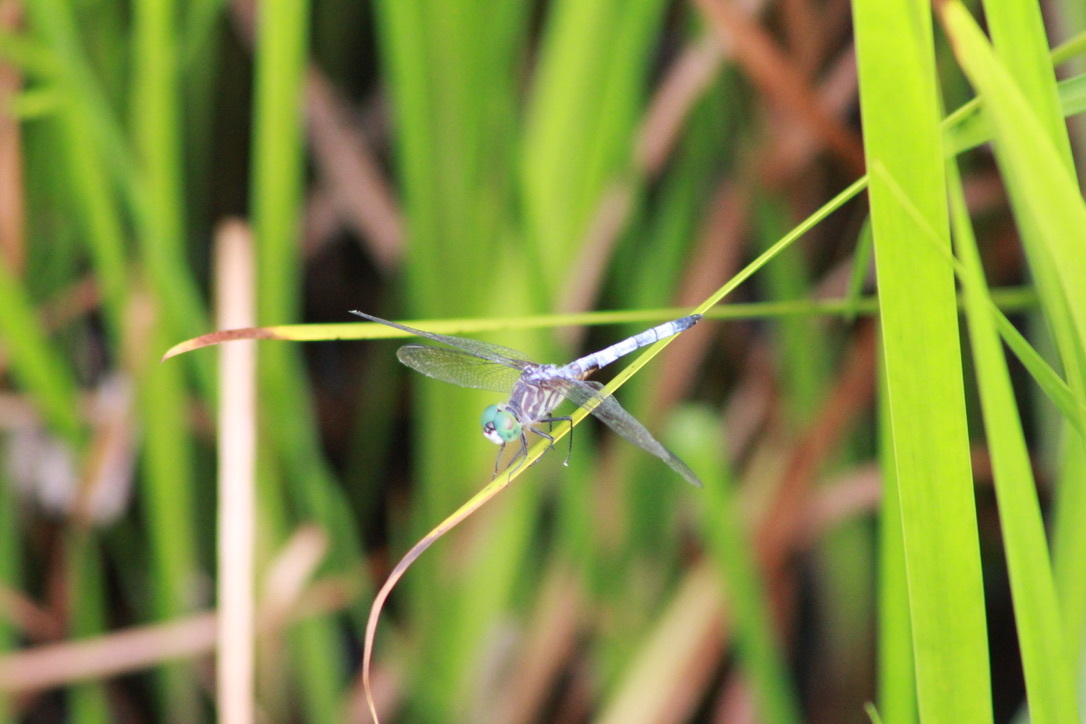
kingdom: Animalia
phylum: Arthropoda
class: Insecta
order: Odonata
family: Libellulidae
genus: Pachydiplax
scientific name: Pachydiplax longipennis
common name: Blue dasher
